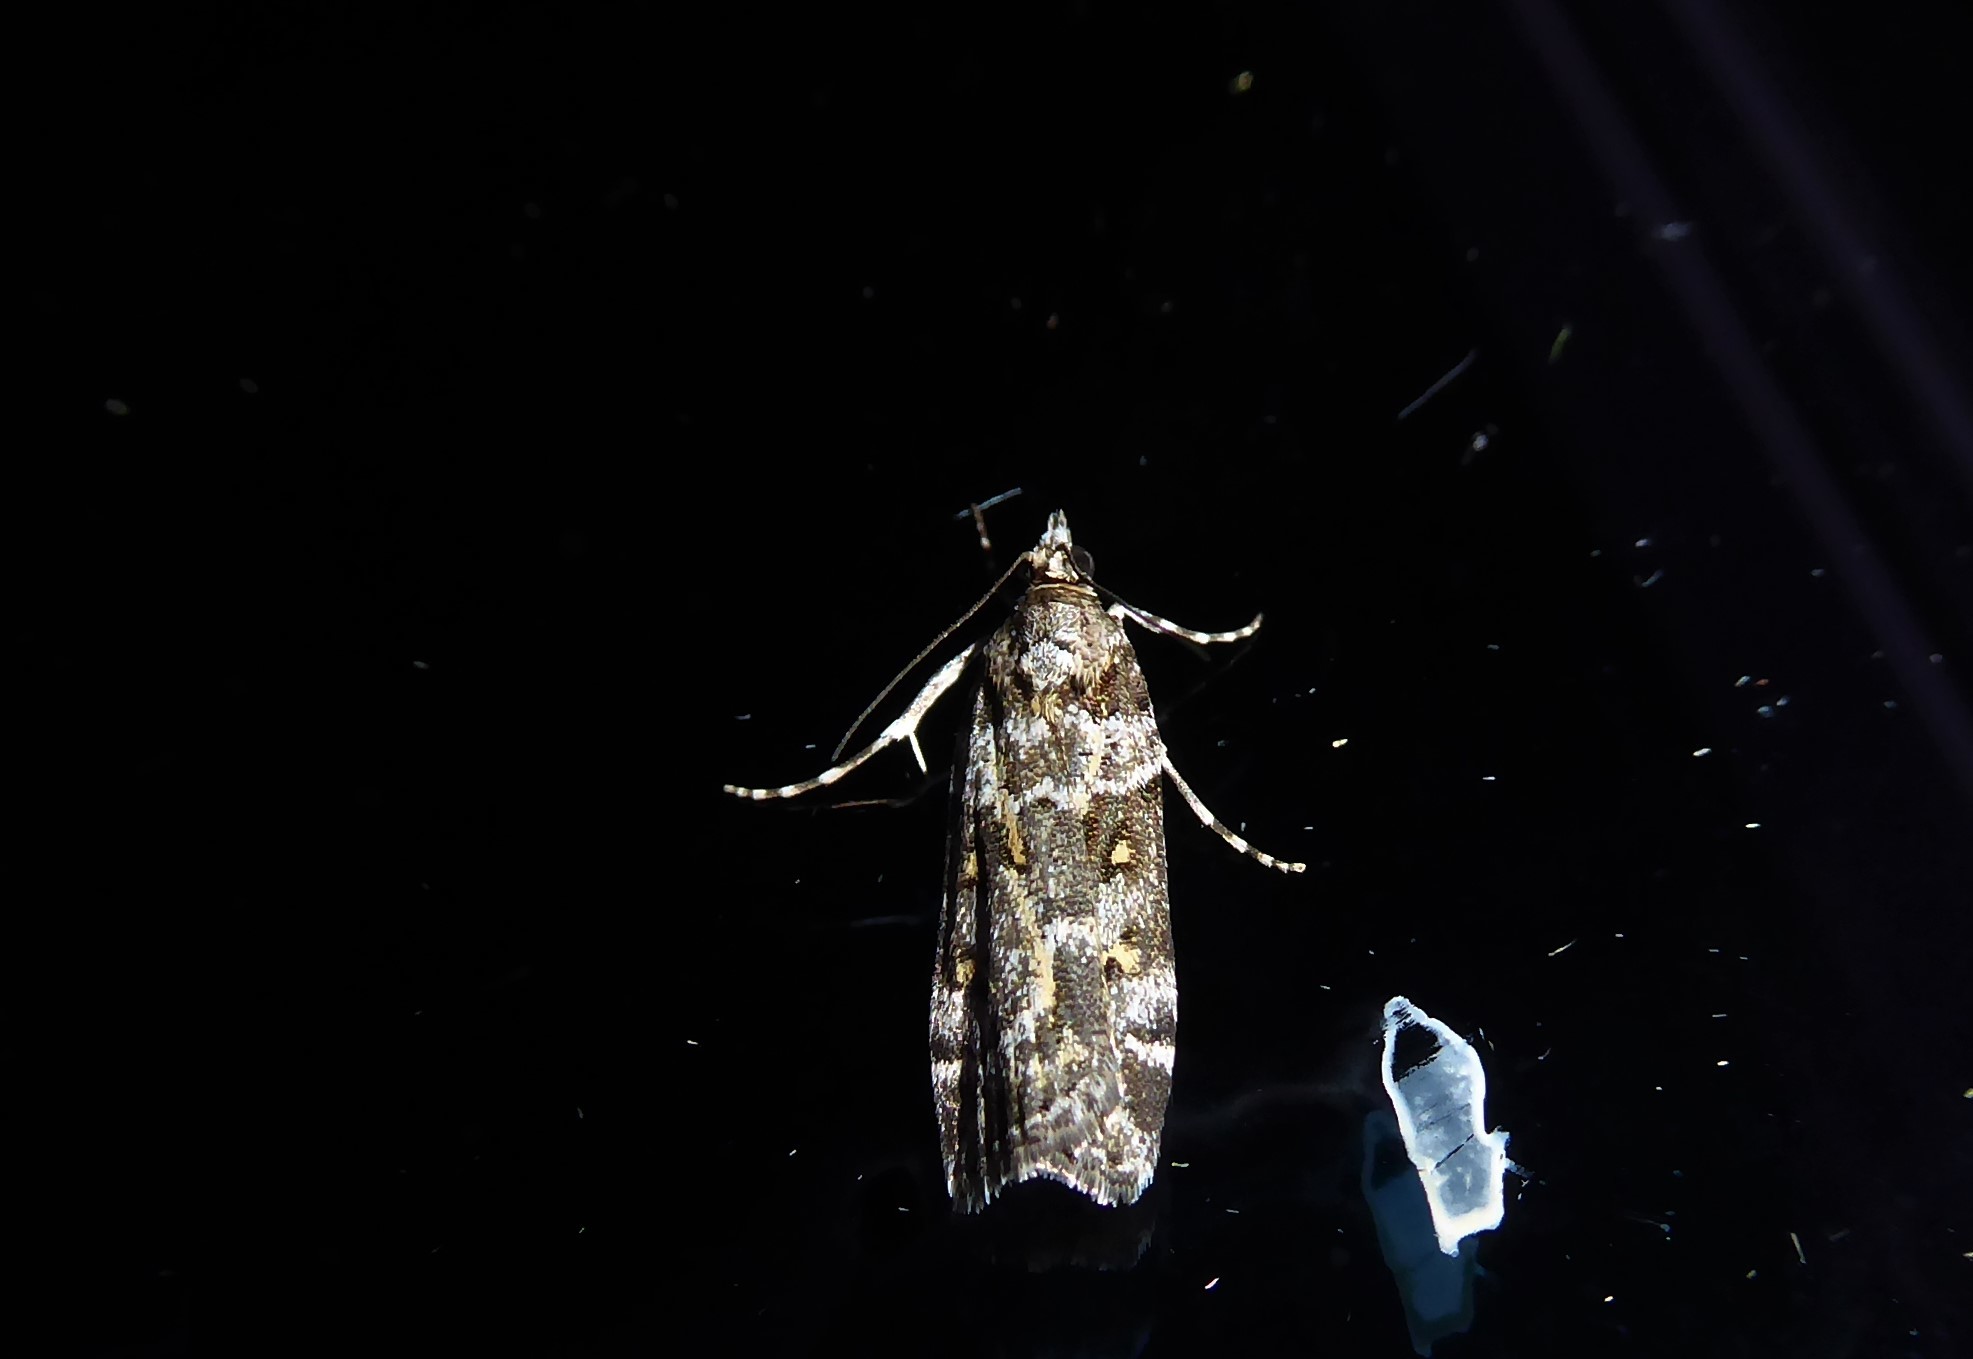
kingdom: Animalia
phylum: Arthropoda
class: Insecta
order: Lepidoptera
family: Crambidae
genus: Eudonia
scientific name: Eudonia diphtheralis
